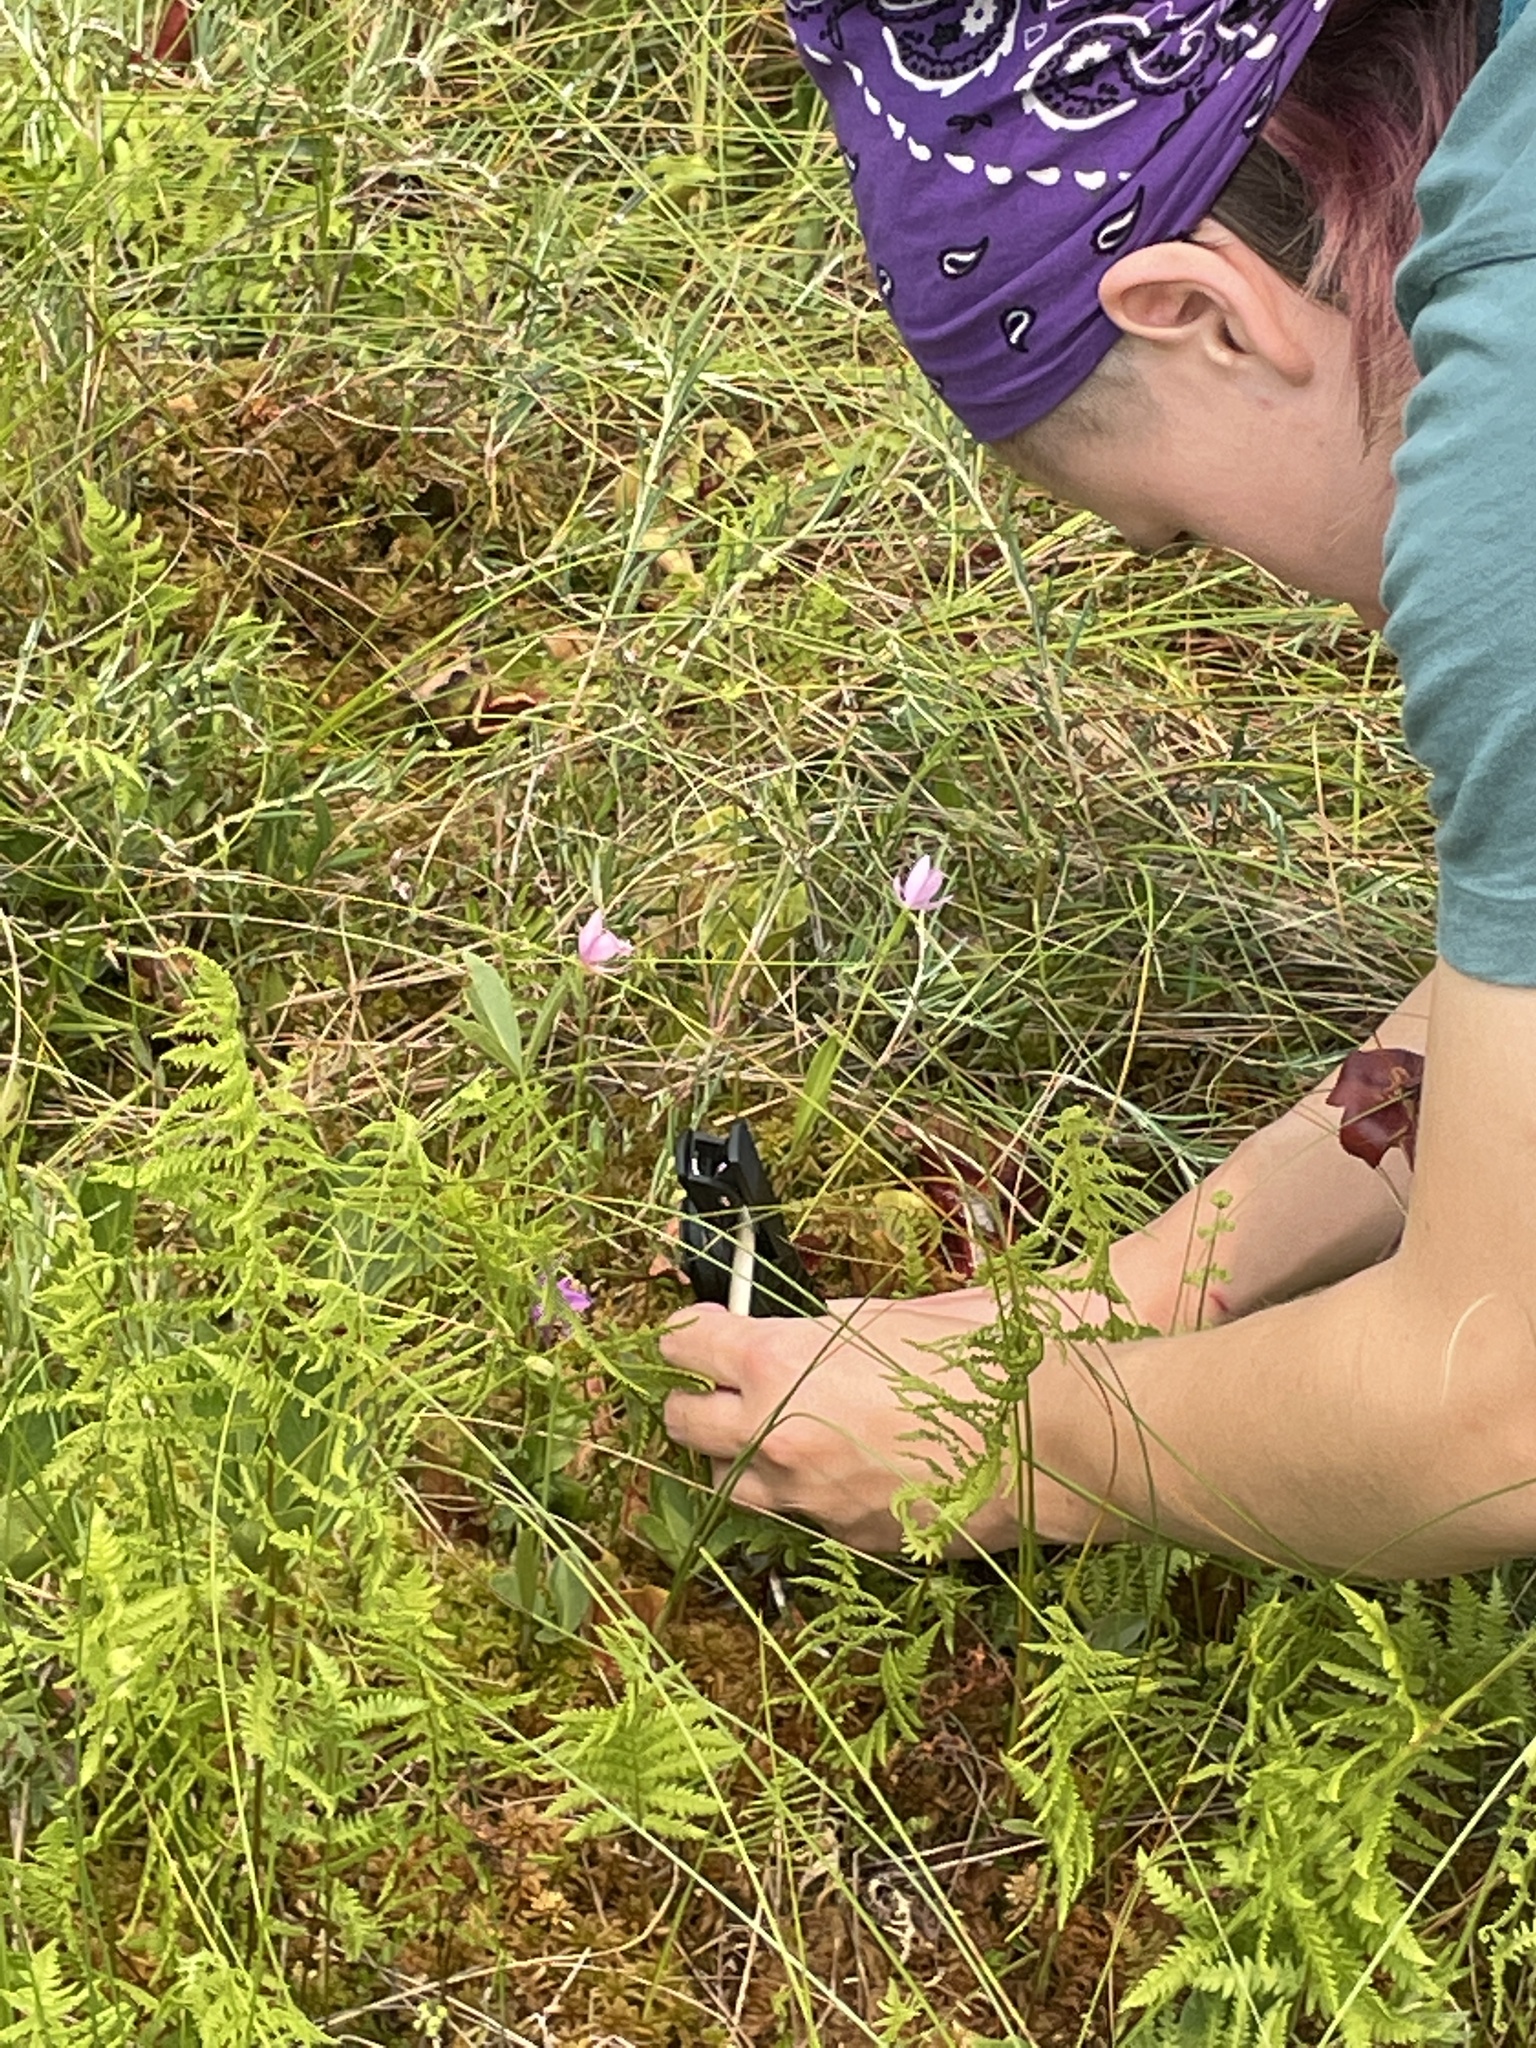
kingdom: Plantae
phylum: Tracheophyta
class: Liliopsida
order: Asparagales
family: Orchidaceae
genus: Arethusa
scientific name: Arethusa bulbosa
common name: Arethusa
